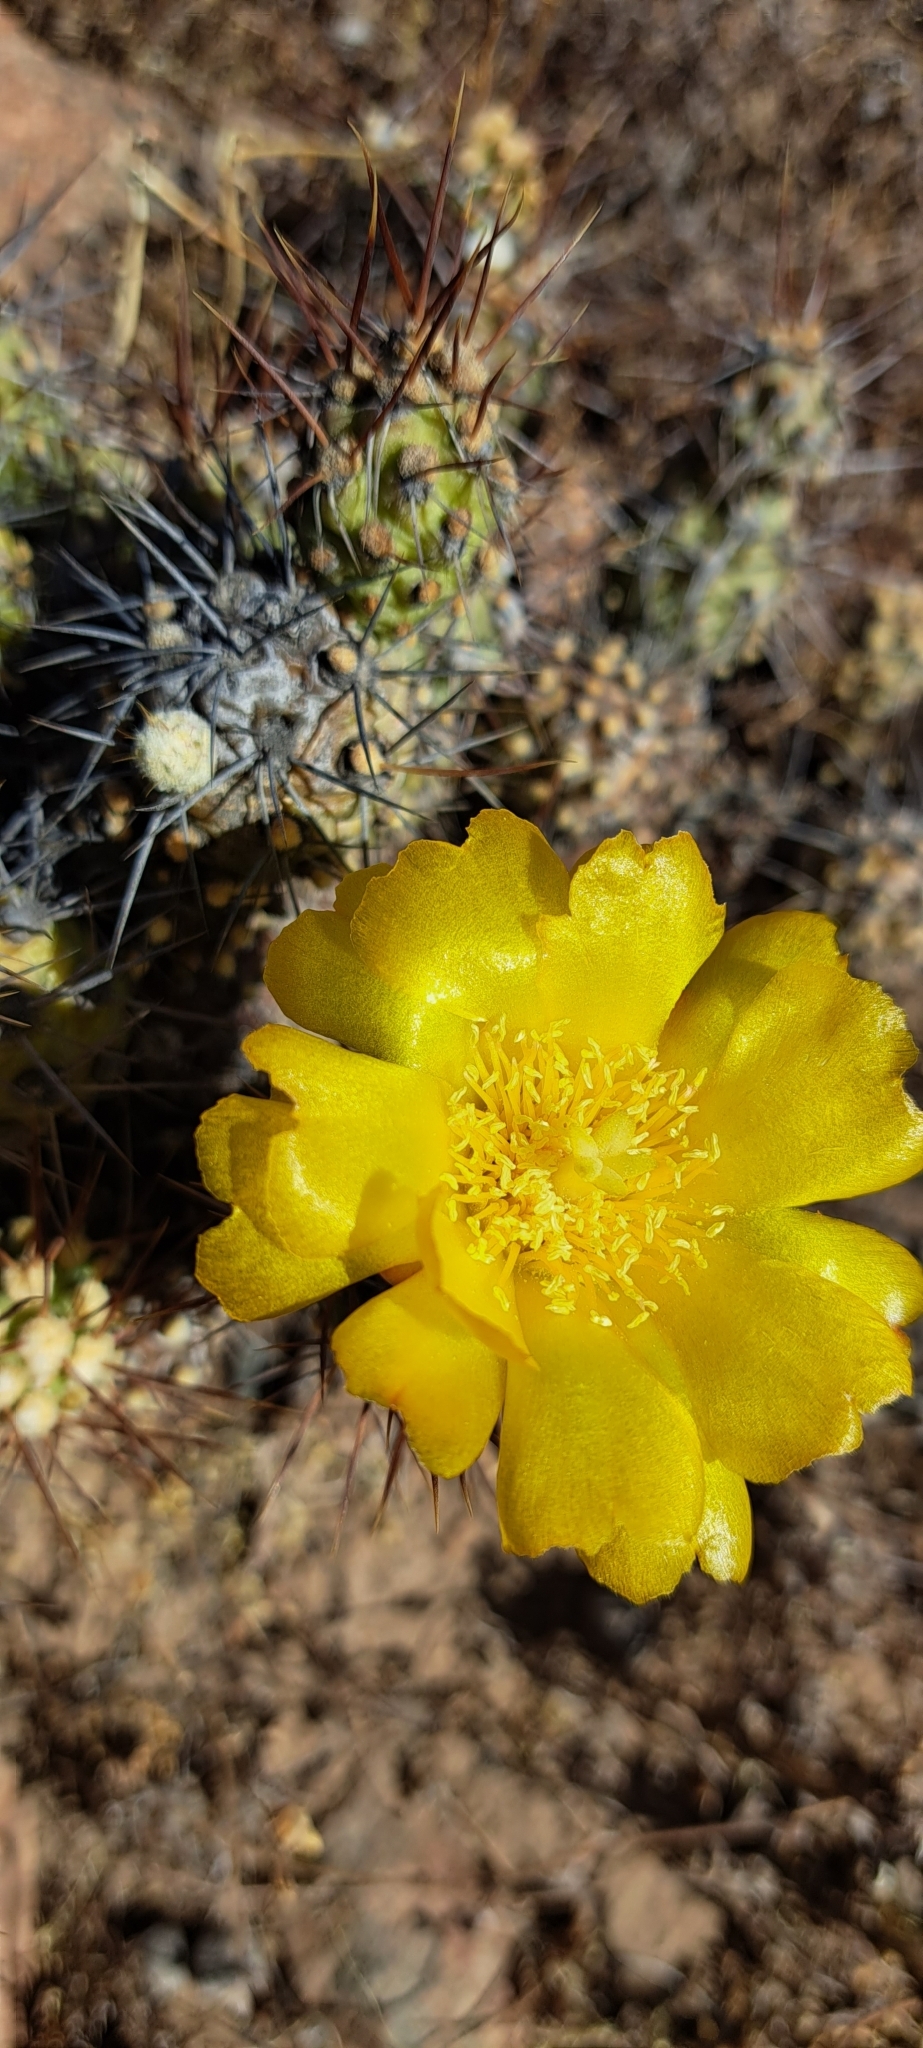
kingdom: Plantae
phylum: Tracheophyta
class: Magnoliopsida
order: Caryophyllales
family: Cactaceae
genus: Cumulopuntia
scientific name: Cumulopuntia leucophaea
